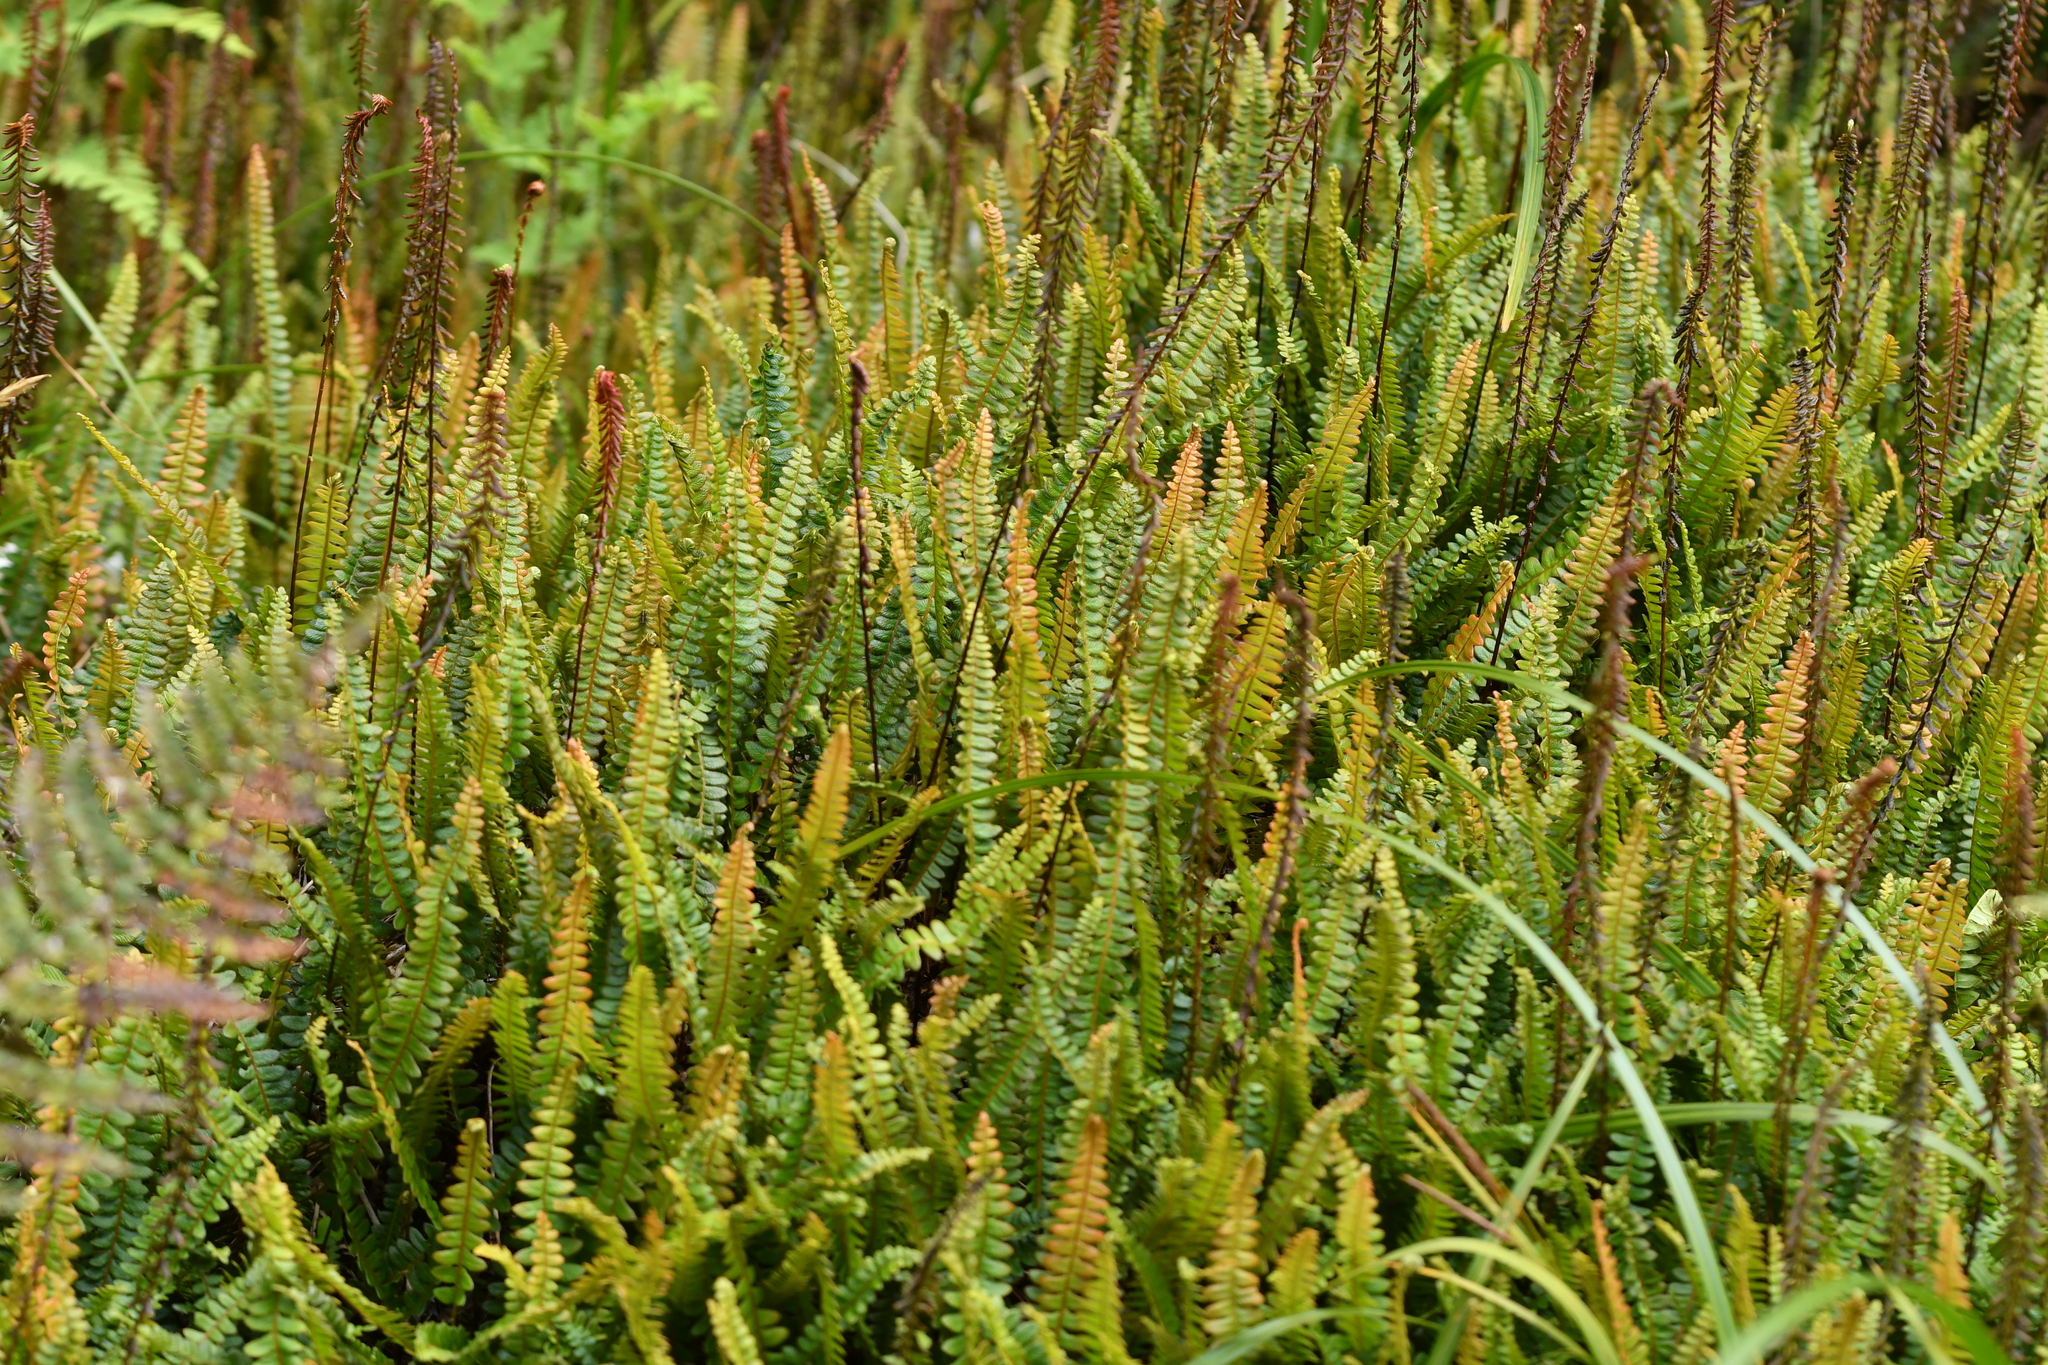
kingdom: Plantae
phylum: Tracheophyta
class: Polypodiopsida
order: Polypodiales
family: Blechnaceae
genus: Austroblechnum
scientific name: Austroblechnum penna-marina
